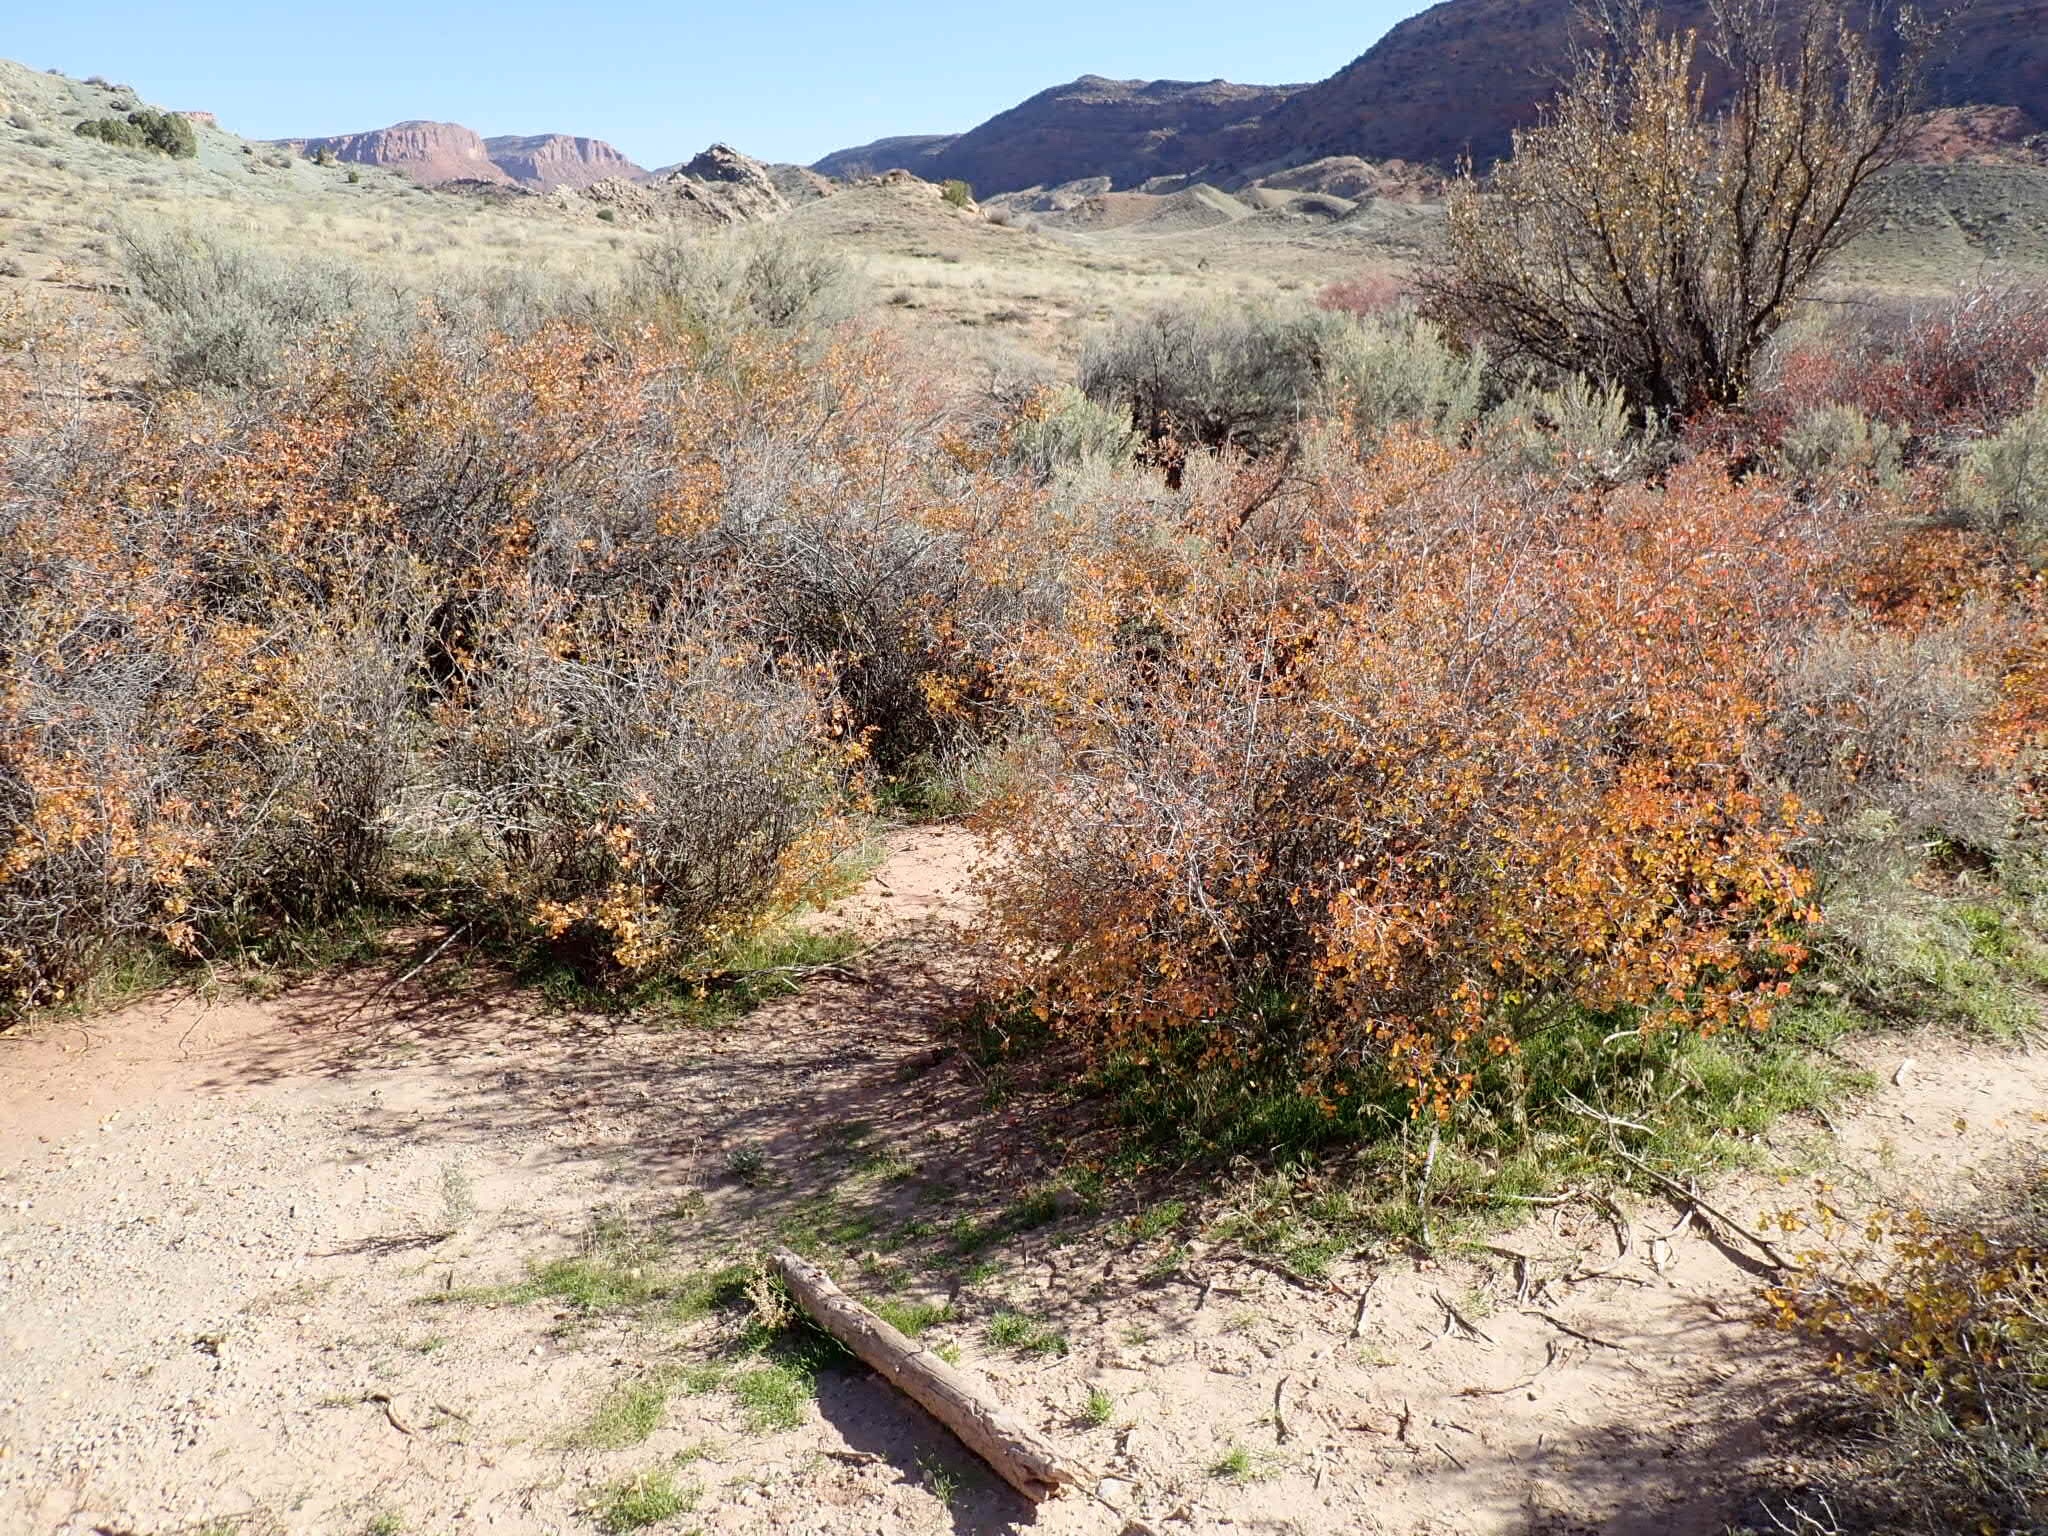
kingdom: Plantae
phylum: Tracheophyta
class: Magnoliopsida
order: Sapindales
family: Anacardiaceae
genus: Rhus
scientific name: Rhus aromatica
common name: Aromatic sumac
